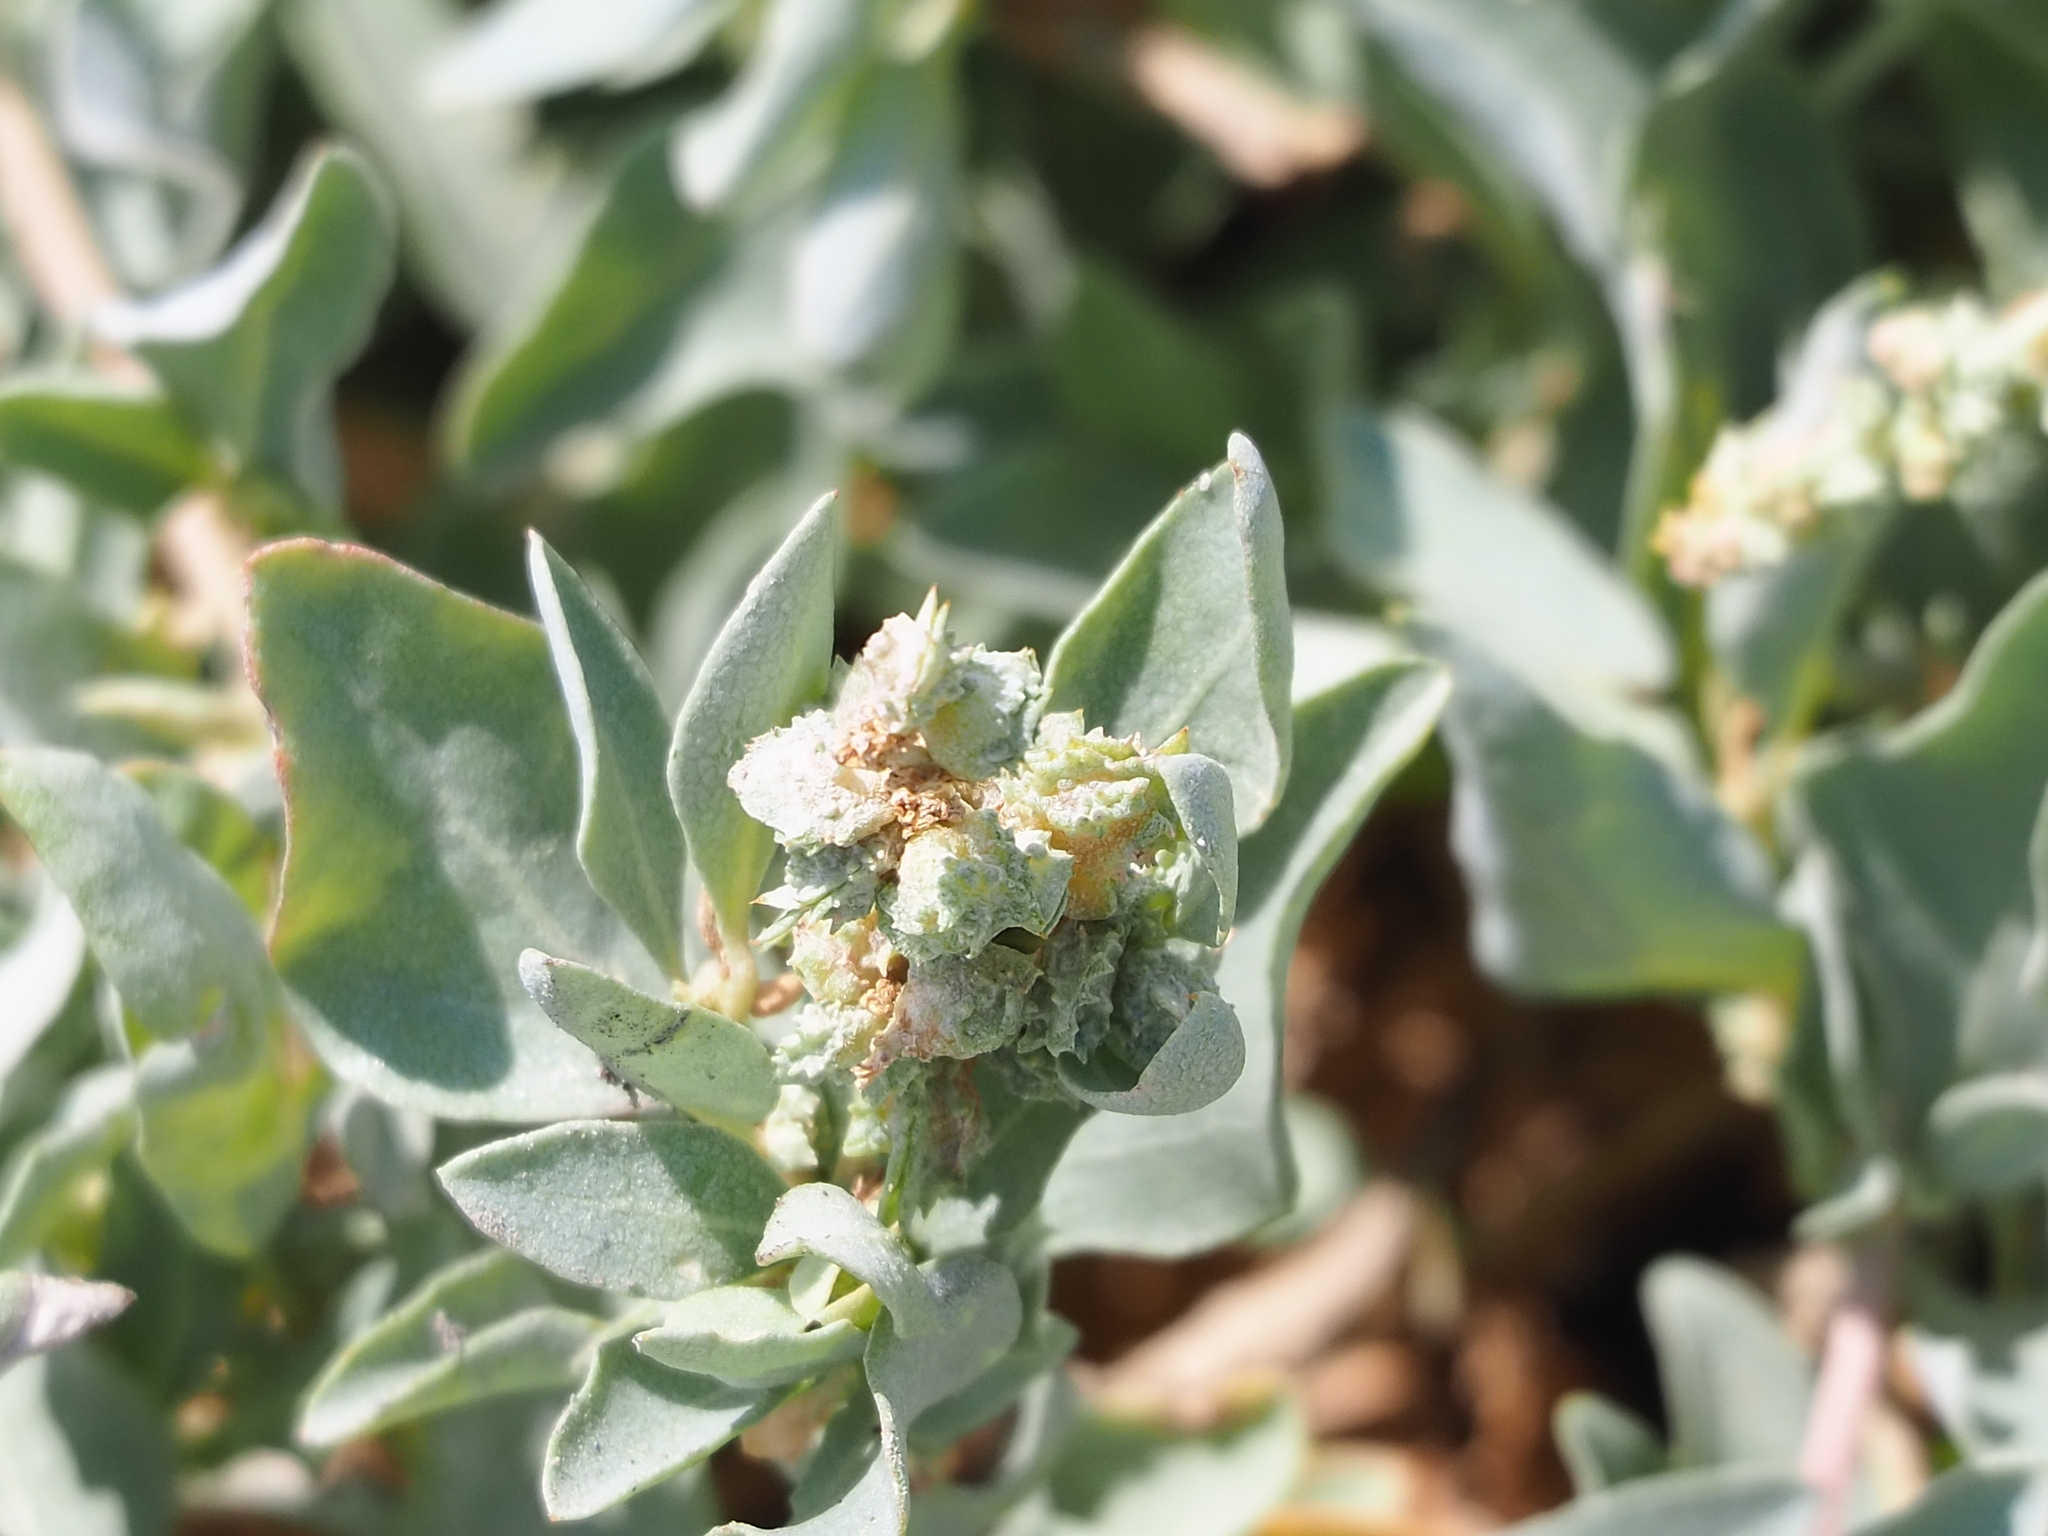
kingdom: Plantae
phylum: Tracheophyta
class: Magnoliopsida
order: Caryophyllales
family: Amaranthaceae
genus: Atriplex
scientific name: Atriplex maximowicziana
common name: Maximowicz's saltbush
